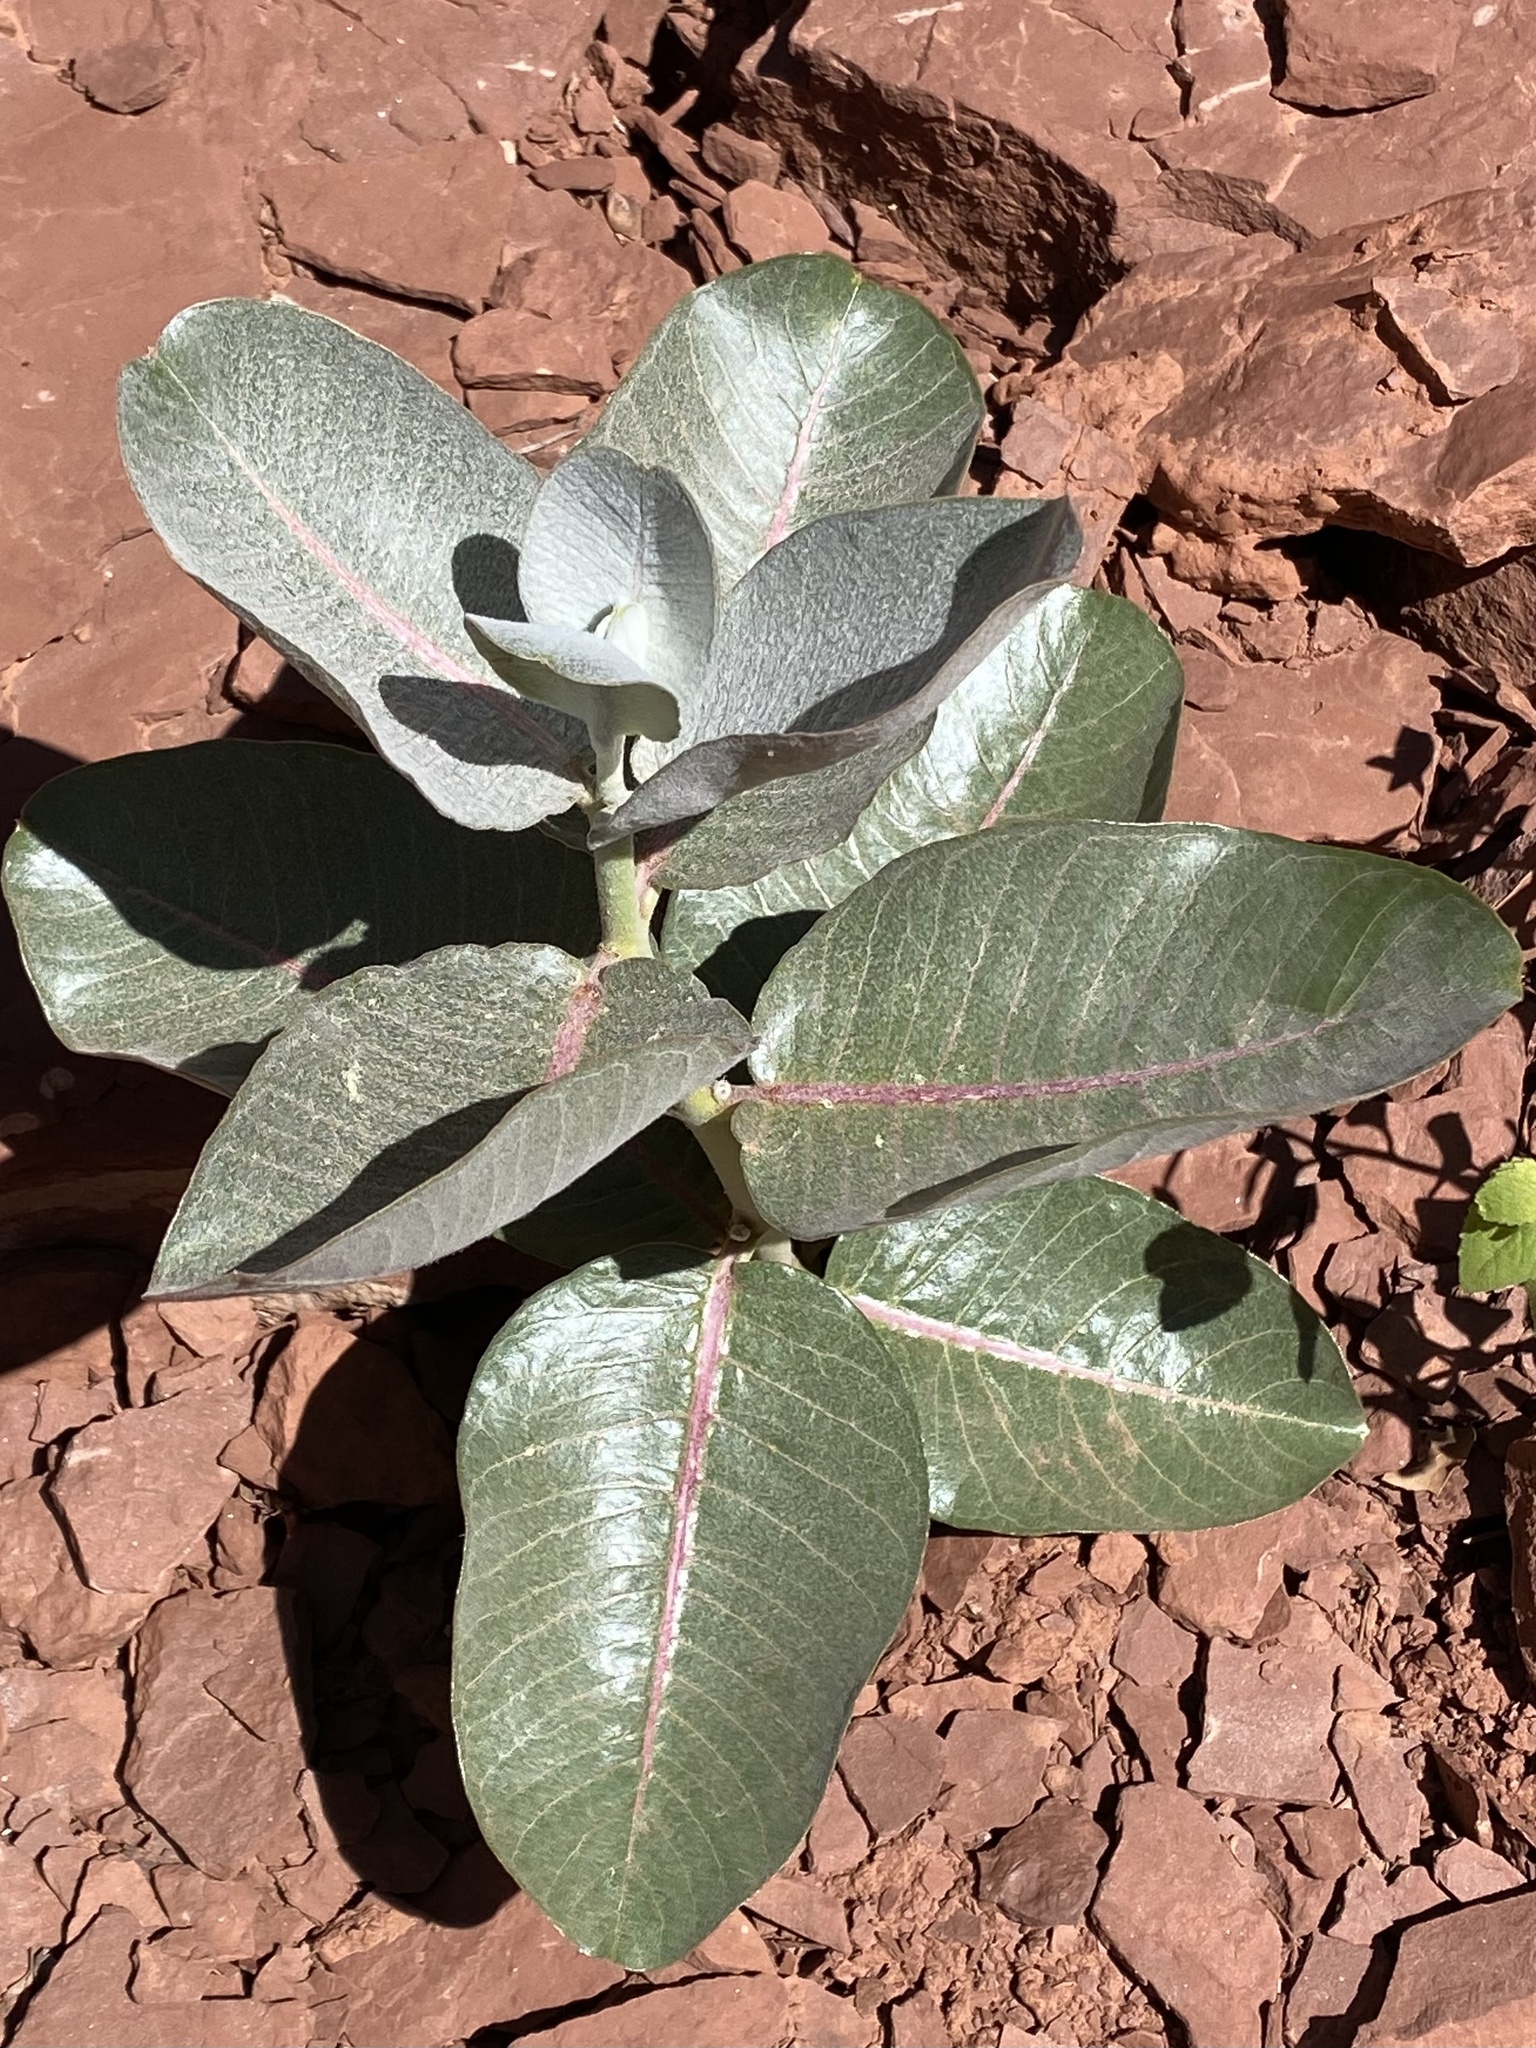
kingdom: Plantae
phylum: Tracheophyta
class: Magnoliopsida
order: Gentianales
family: Apocynaceae
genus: Asclepias
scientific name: Asclepias latifolia
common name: Broadleaf milkweed
